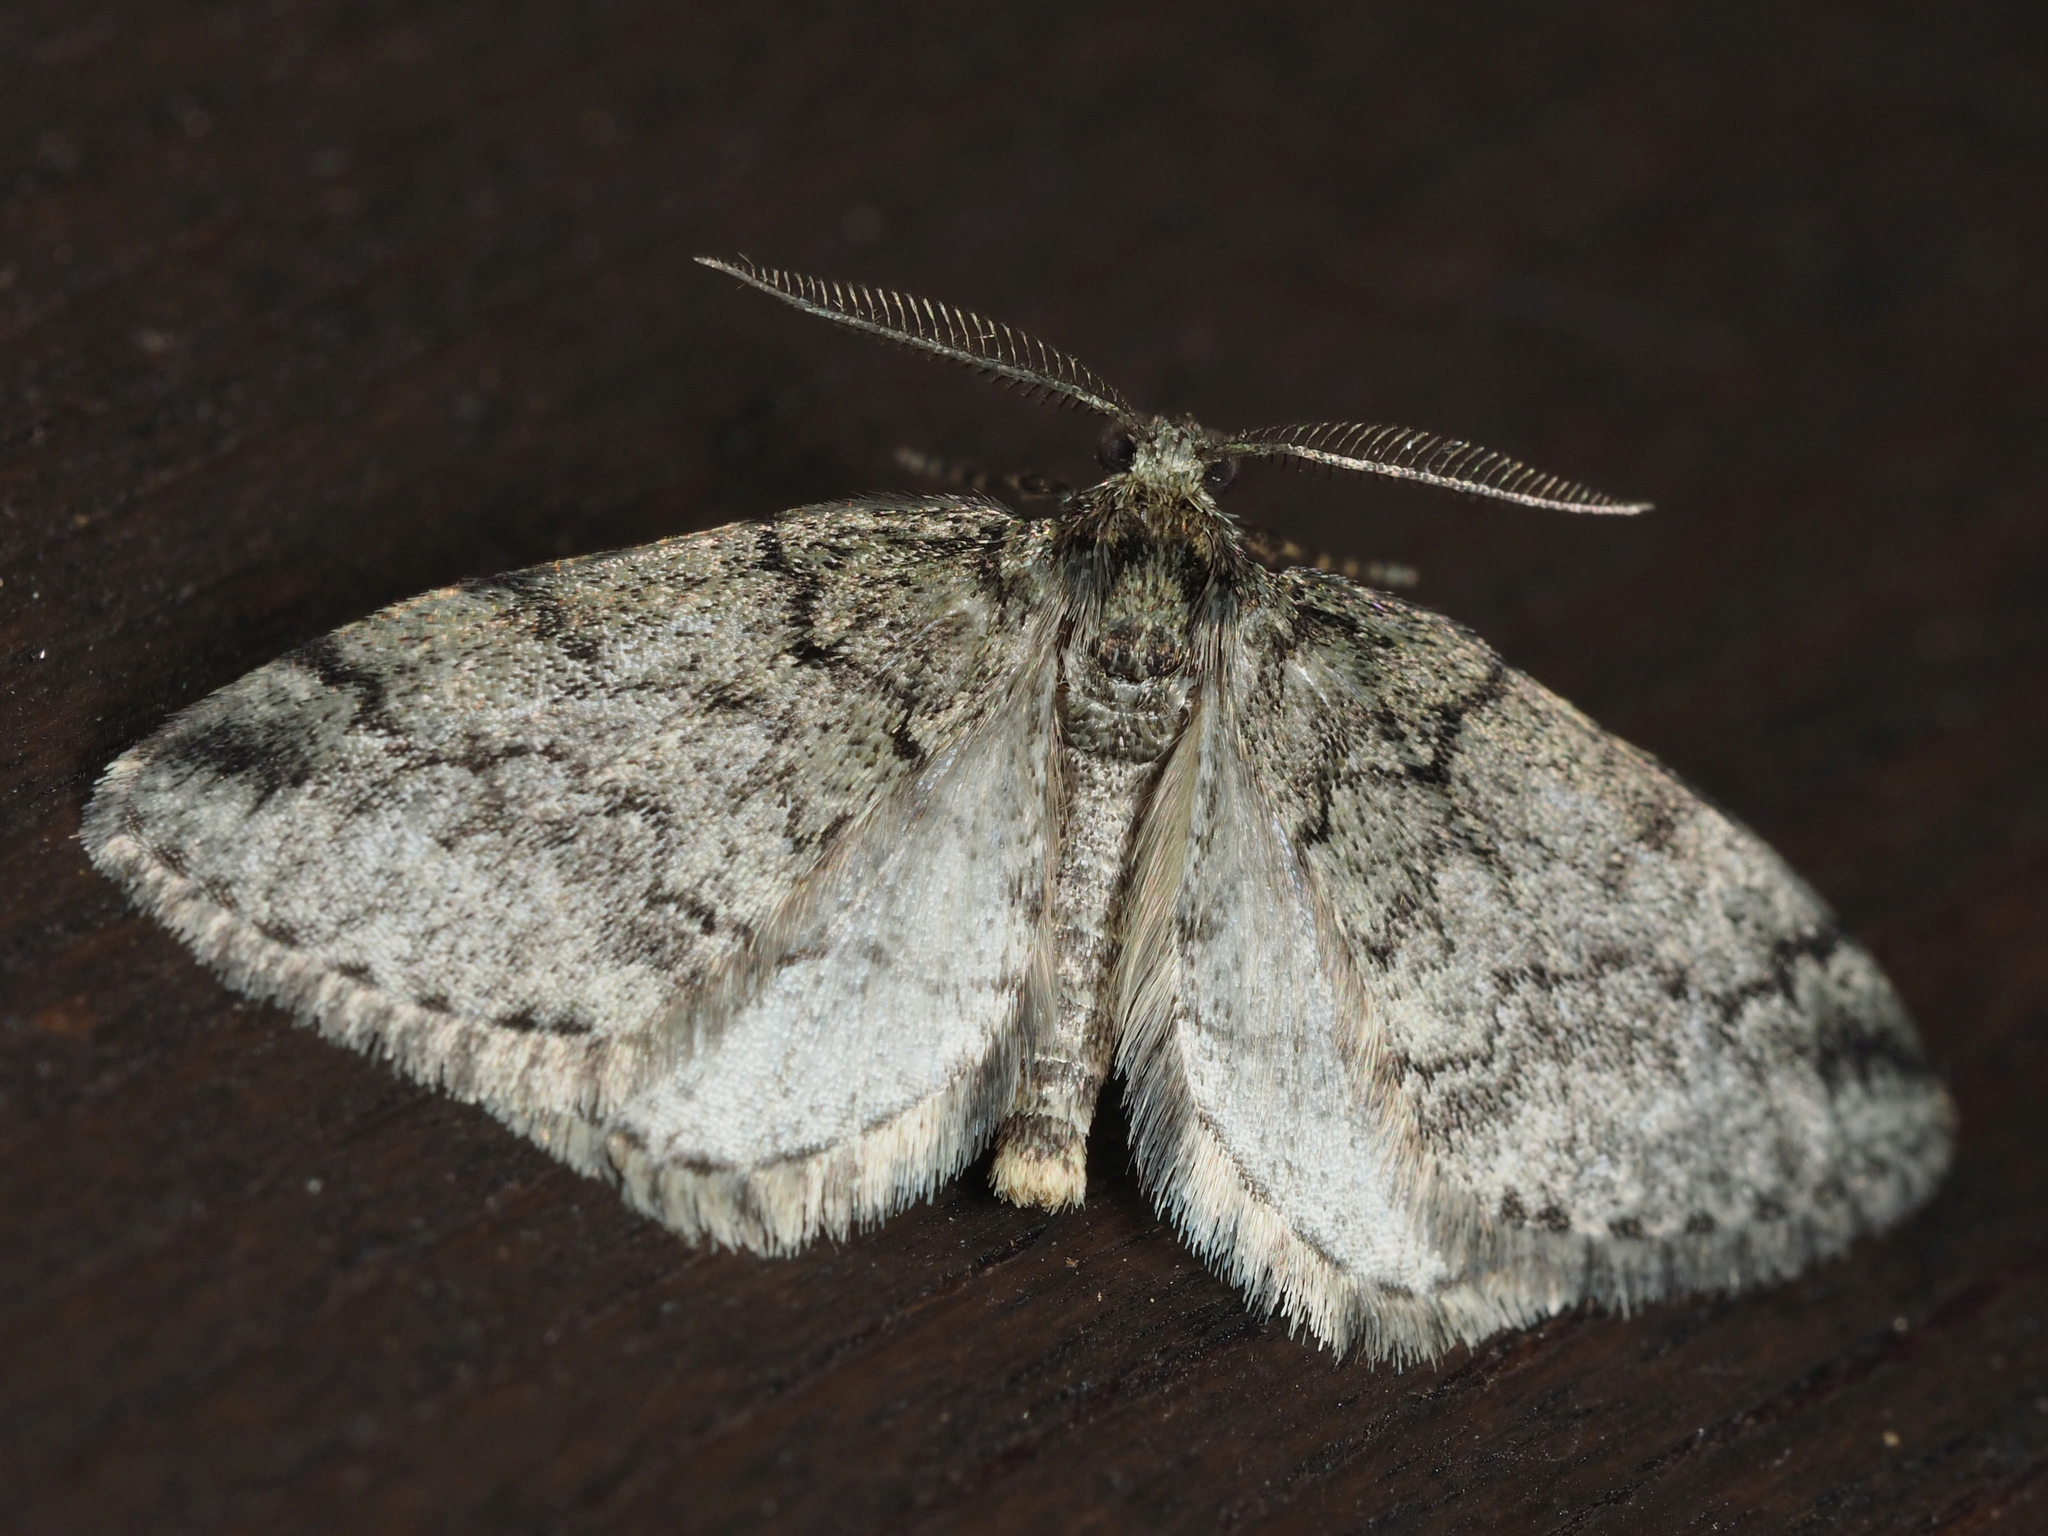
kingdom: Animalia
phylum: Arthropoda
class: Insecta
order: Lepidoptera
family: Geometridae
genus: Tephronia
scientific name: Tephronia theophilaria
